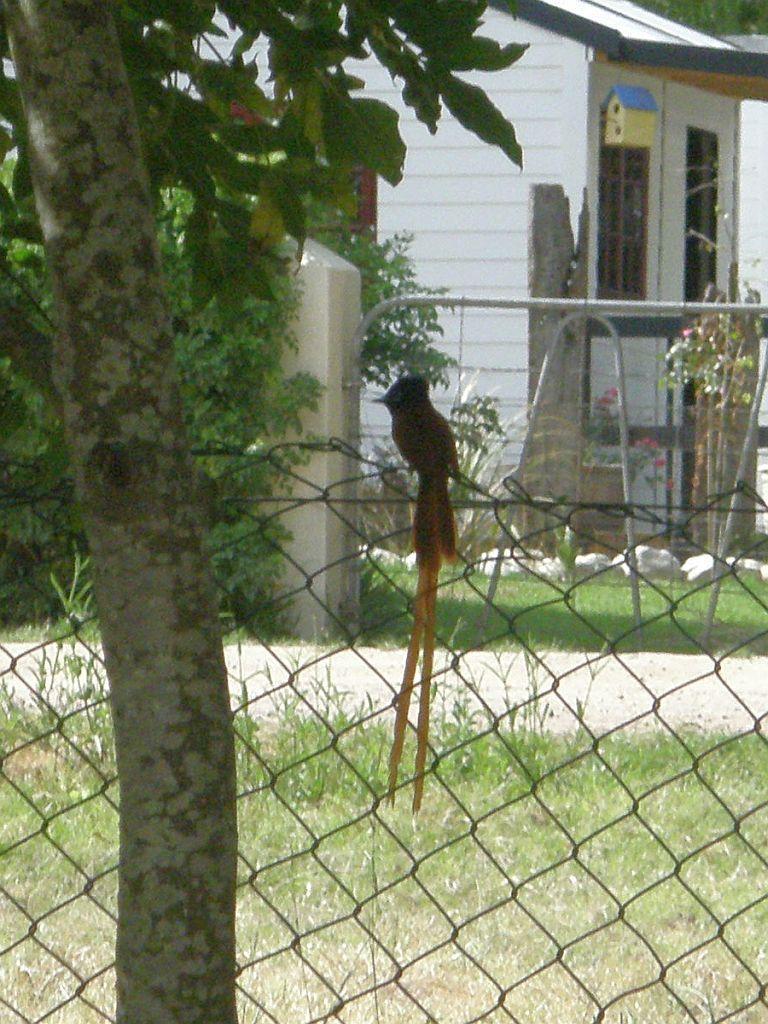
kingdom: Animalia
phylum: Chordata
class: Aves
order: Passeriformes
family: Monarchidae
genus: Terpsiphone
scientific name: Terpsiphone viridis
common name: African paradise flycatcher
